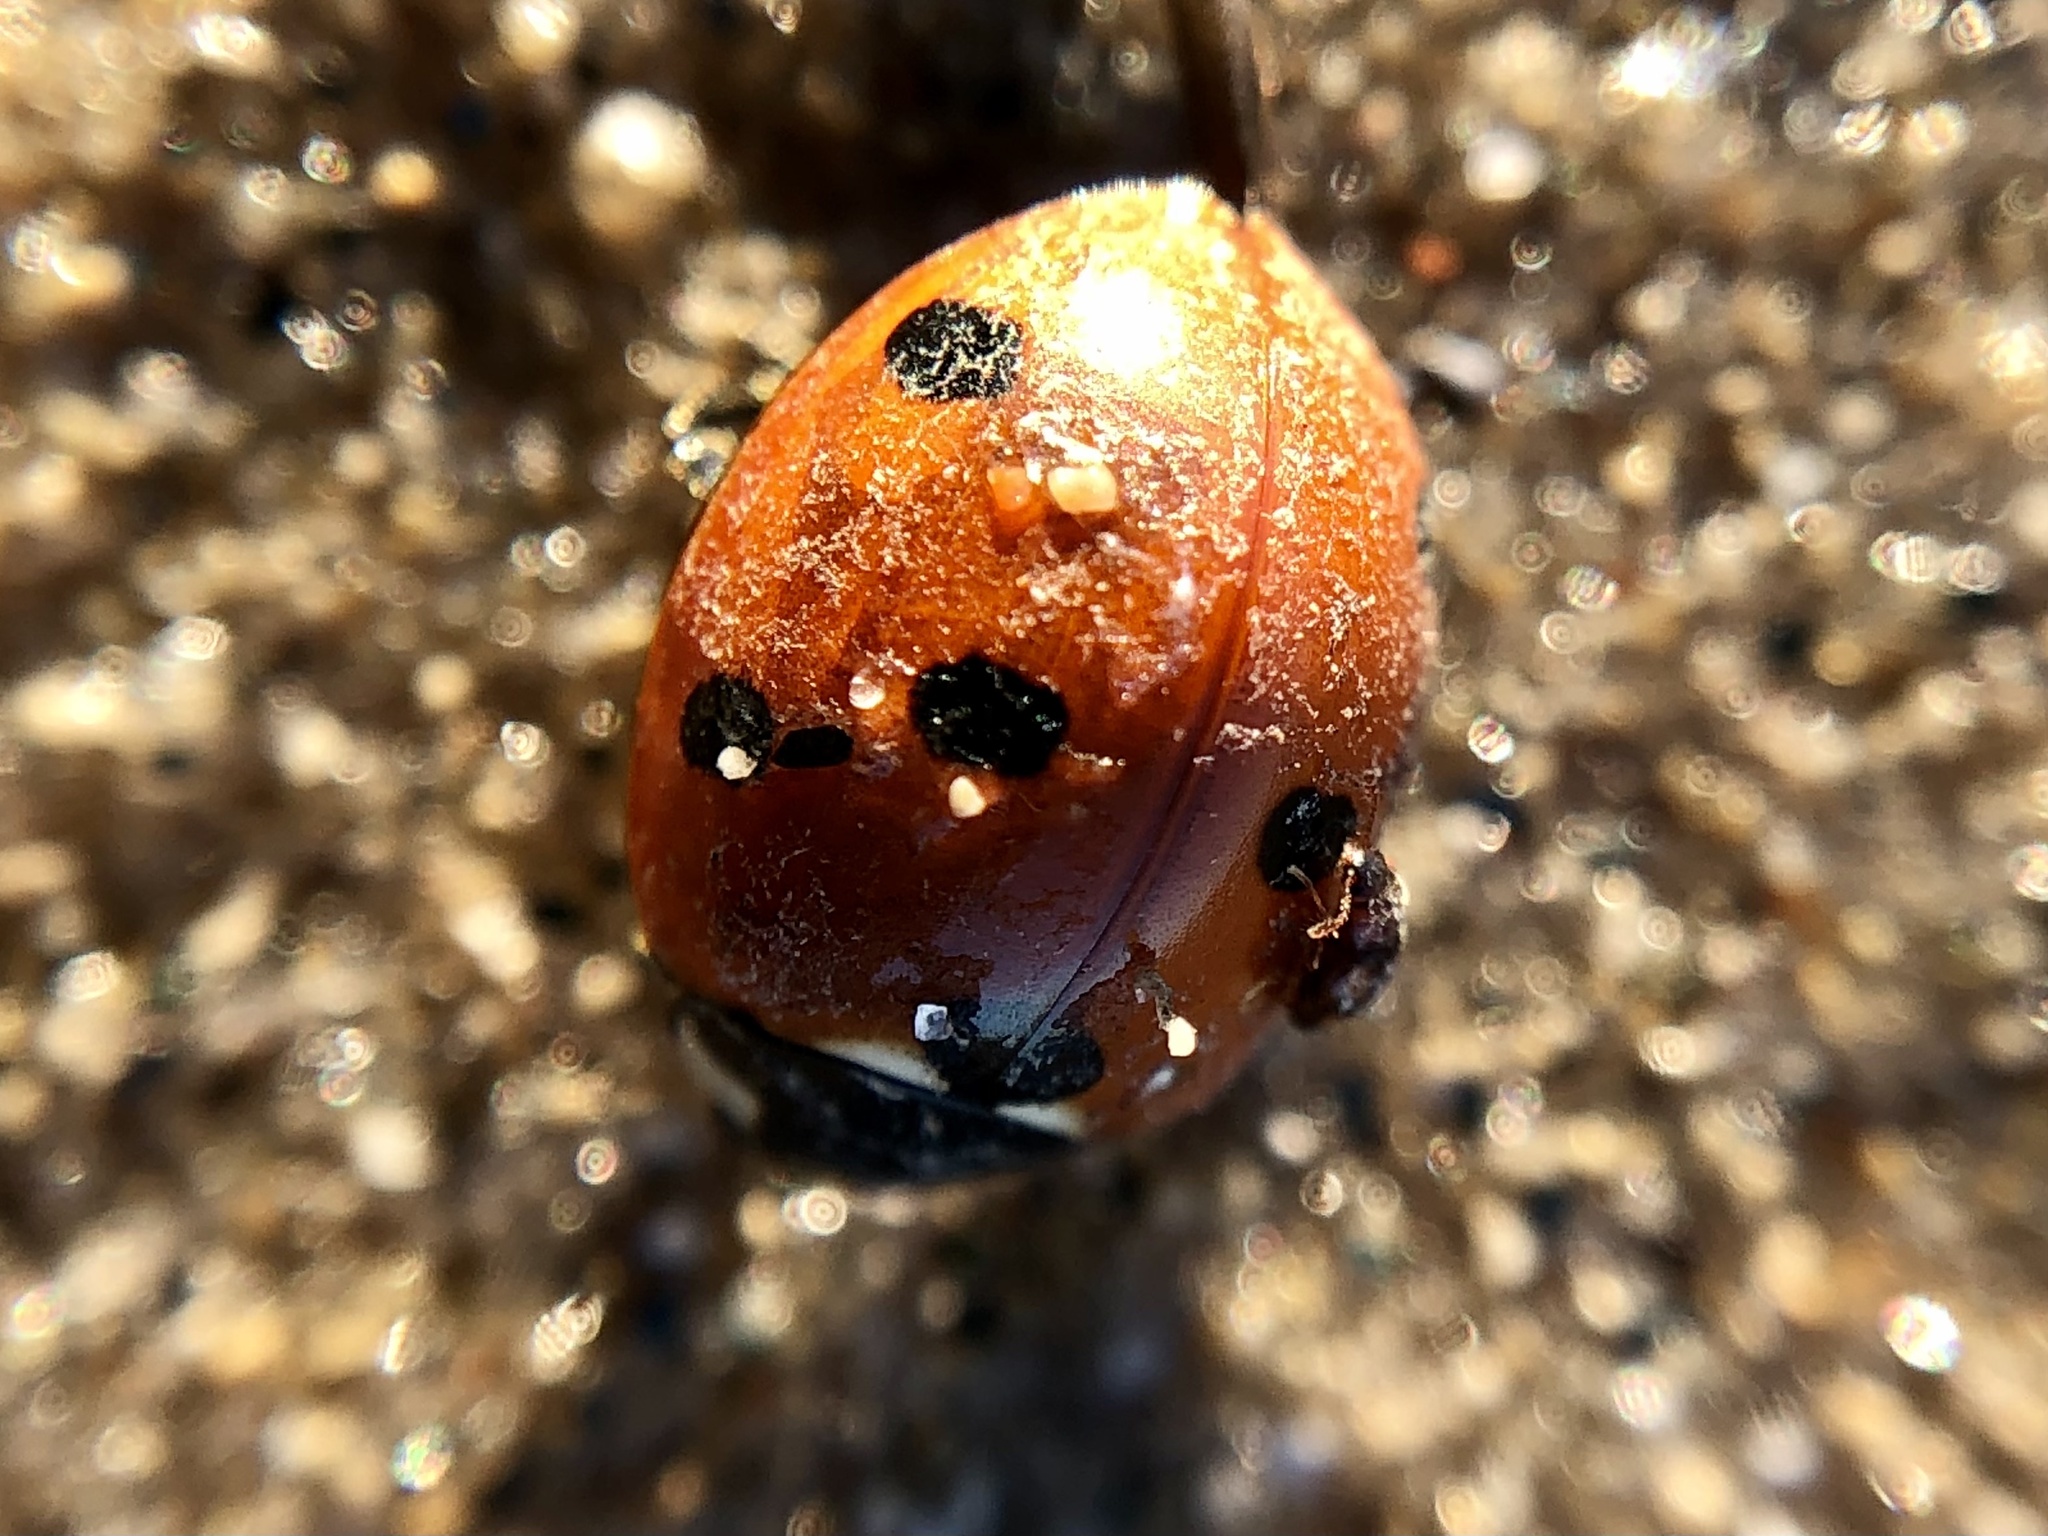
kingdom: Animalia
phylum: Arthropoda
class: Insecta
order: Coleoptera
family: Coccinellidae
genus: Coccinella
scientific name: Coccinella septempunctata
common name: Sevenspotted lady beetle
